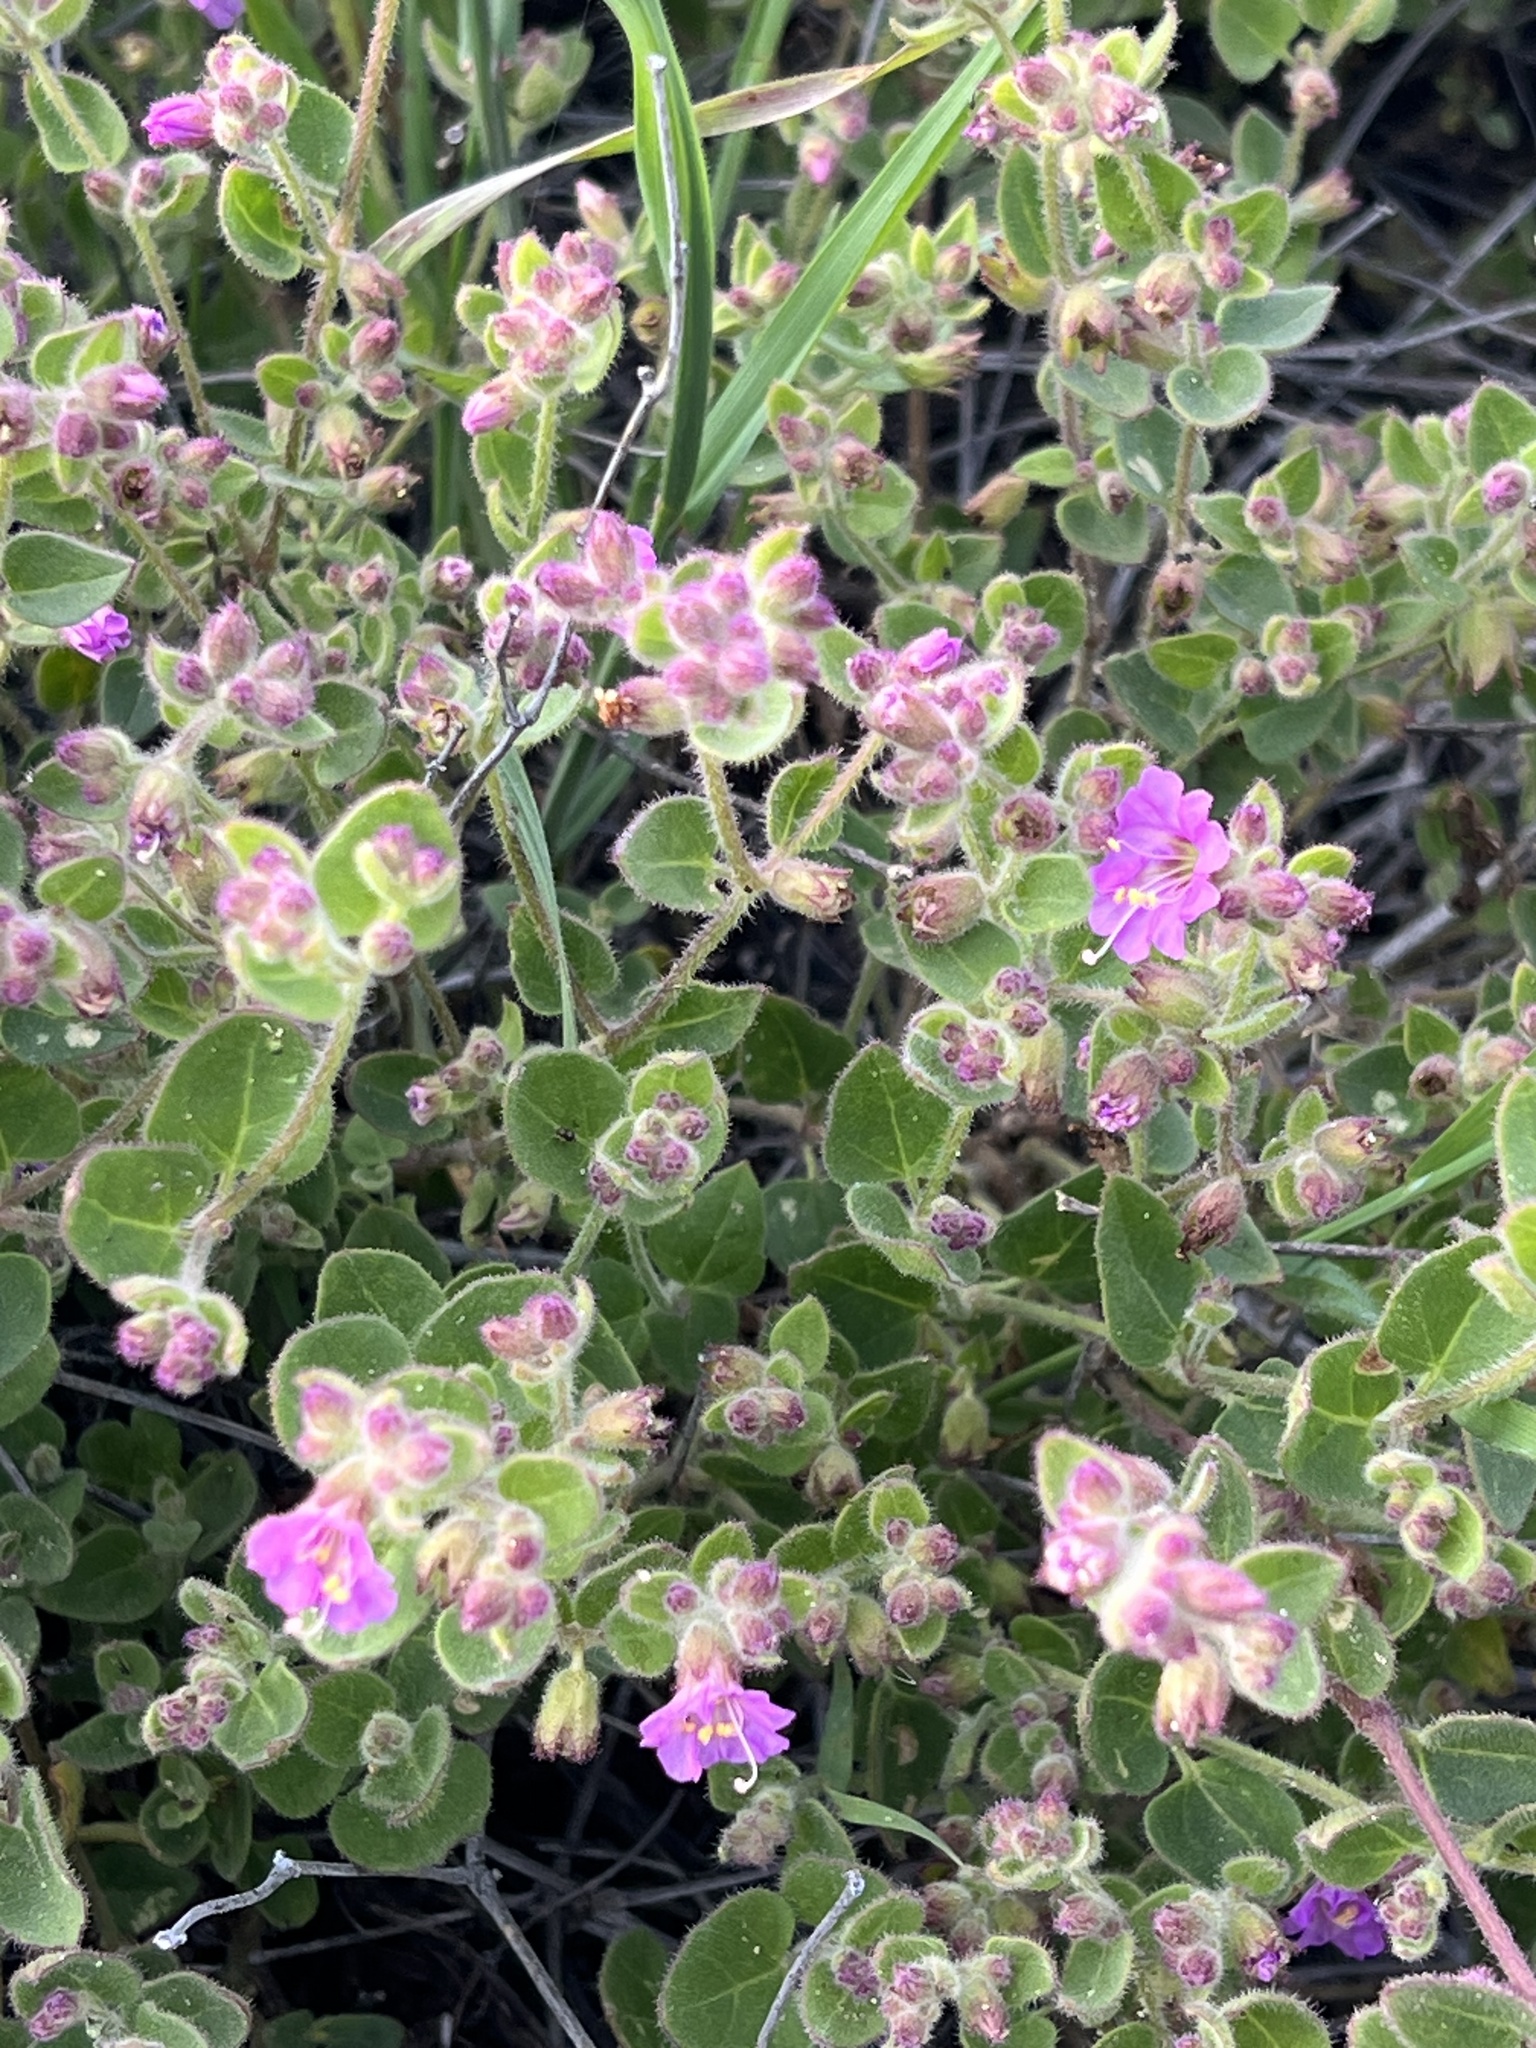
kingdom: Plantae
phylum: Tracheophyta
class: Magnoliopsida
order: Caryophyllales
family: Nyctaginaceae
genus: Mirabilis
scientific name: Mirabilis laevis
